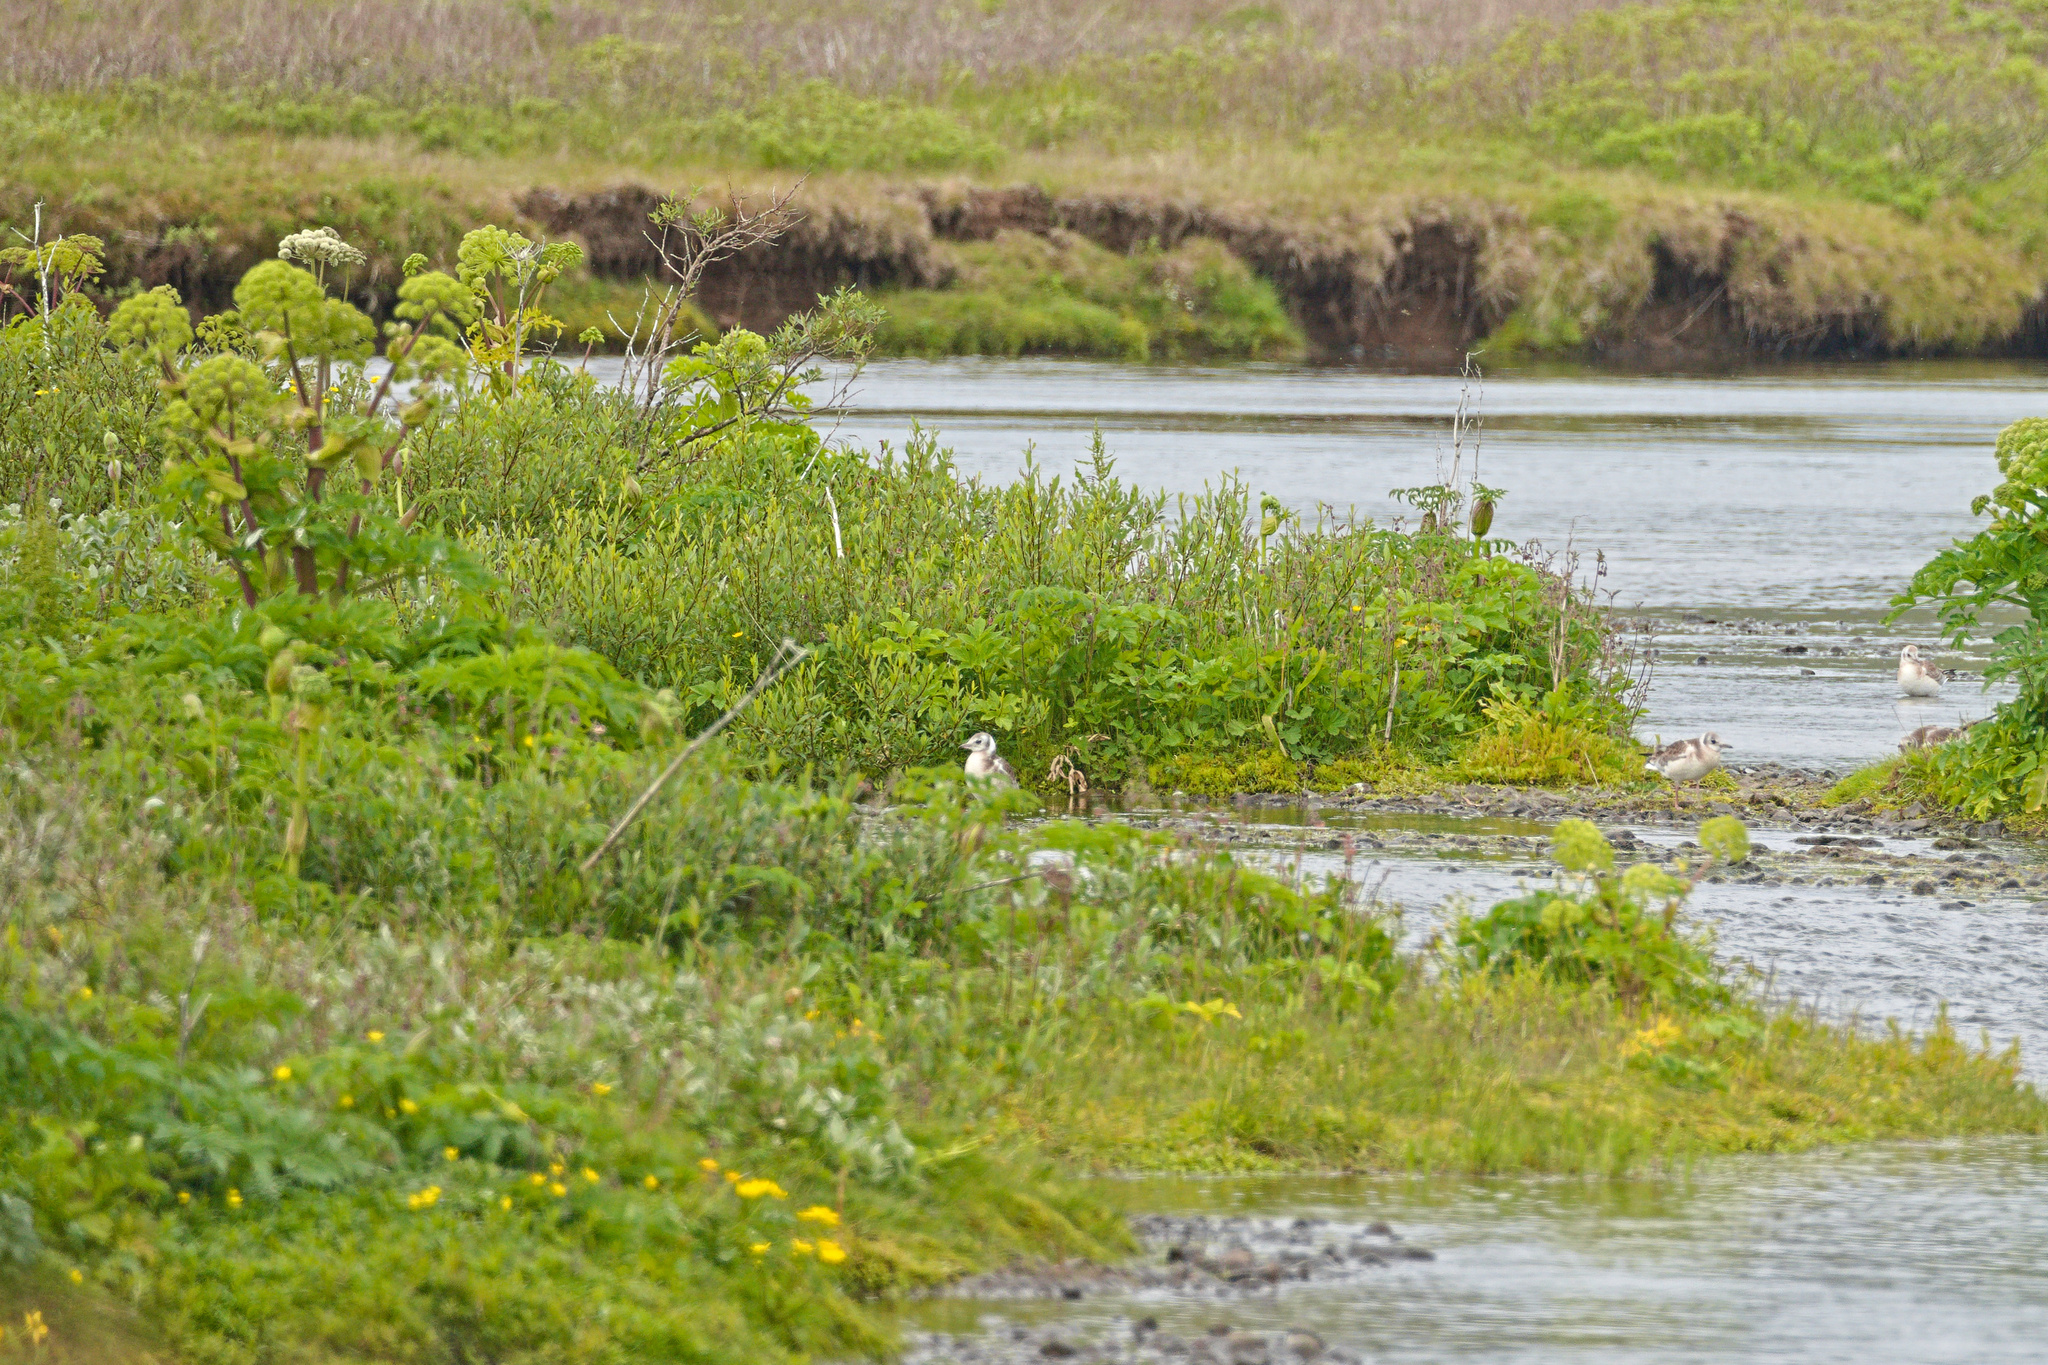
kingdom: Animalia
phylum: Chordata
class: Aves
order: Charadriiformes
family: Laridae
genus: Chroicocephalus
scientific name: Chroicocephalus ridibundus
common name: Black-headed gull
